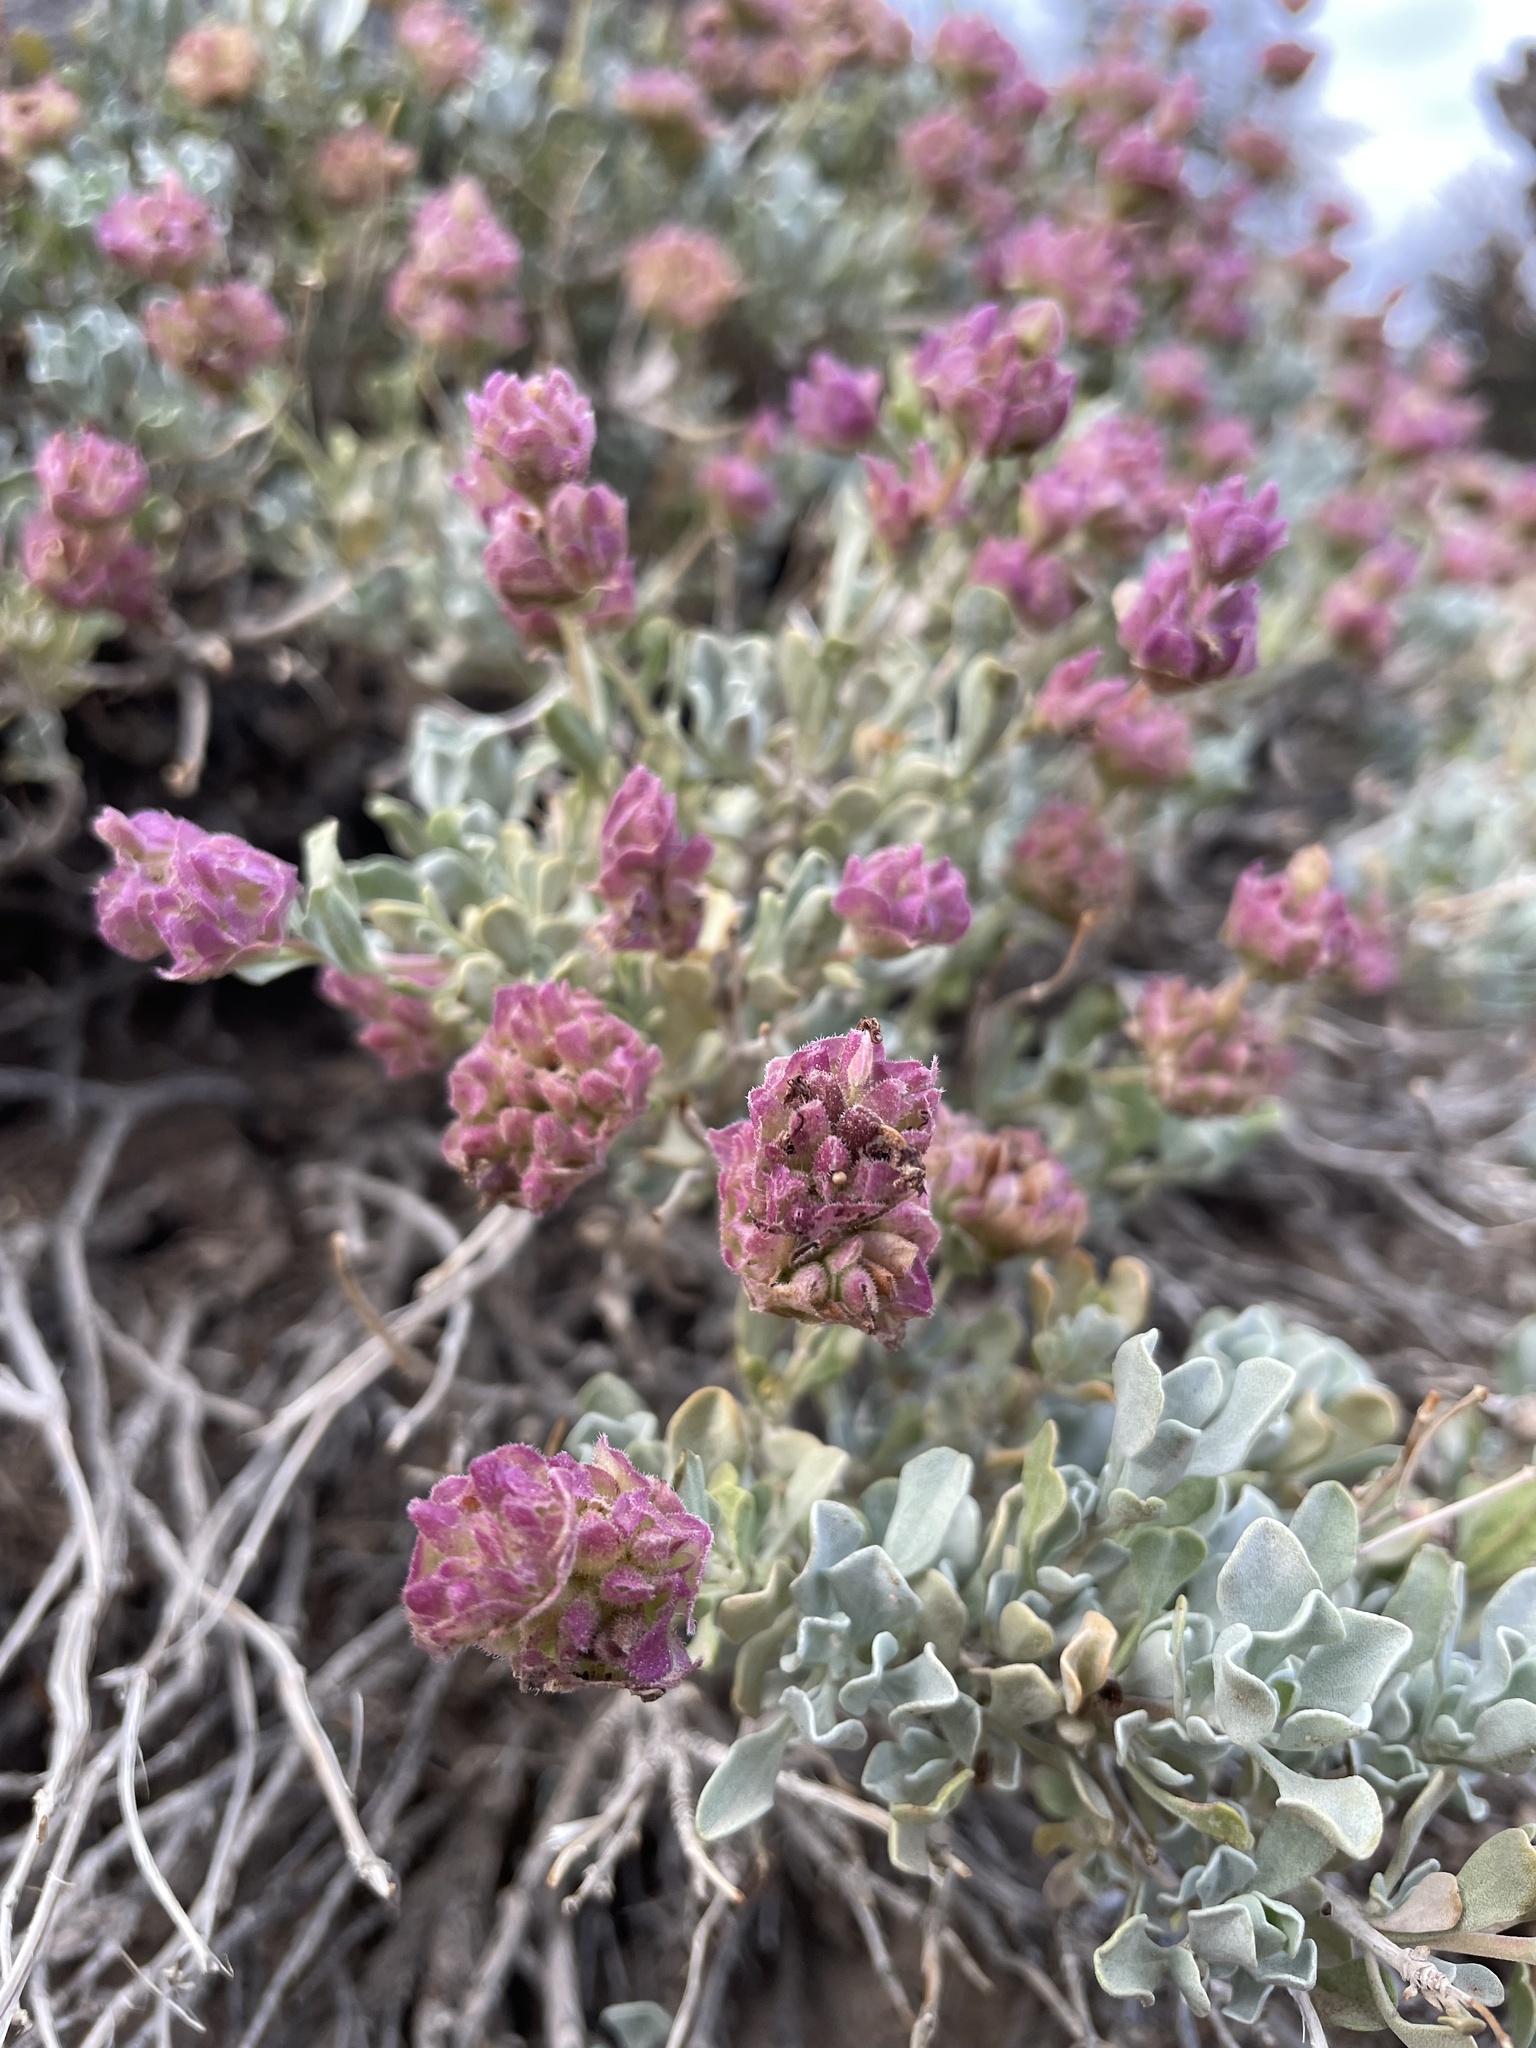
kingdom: Plantae
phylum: Tracheophyta
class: Magnoliopsida
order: Lamiales
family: Lamiaceae
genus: Salvia
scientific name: Salvia dorrii
